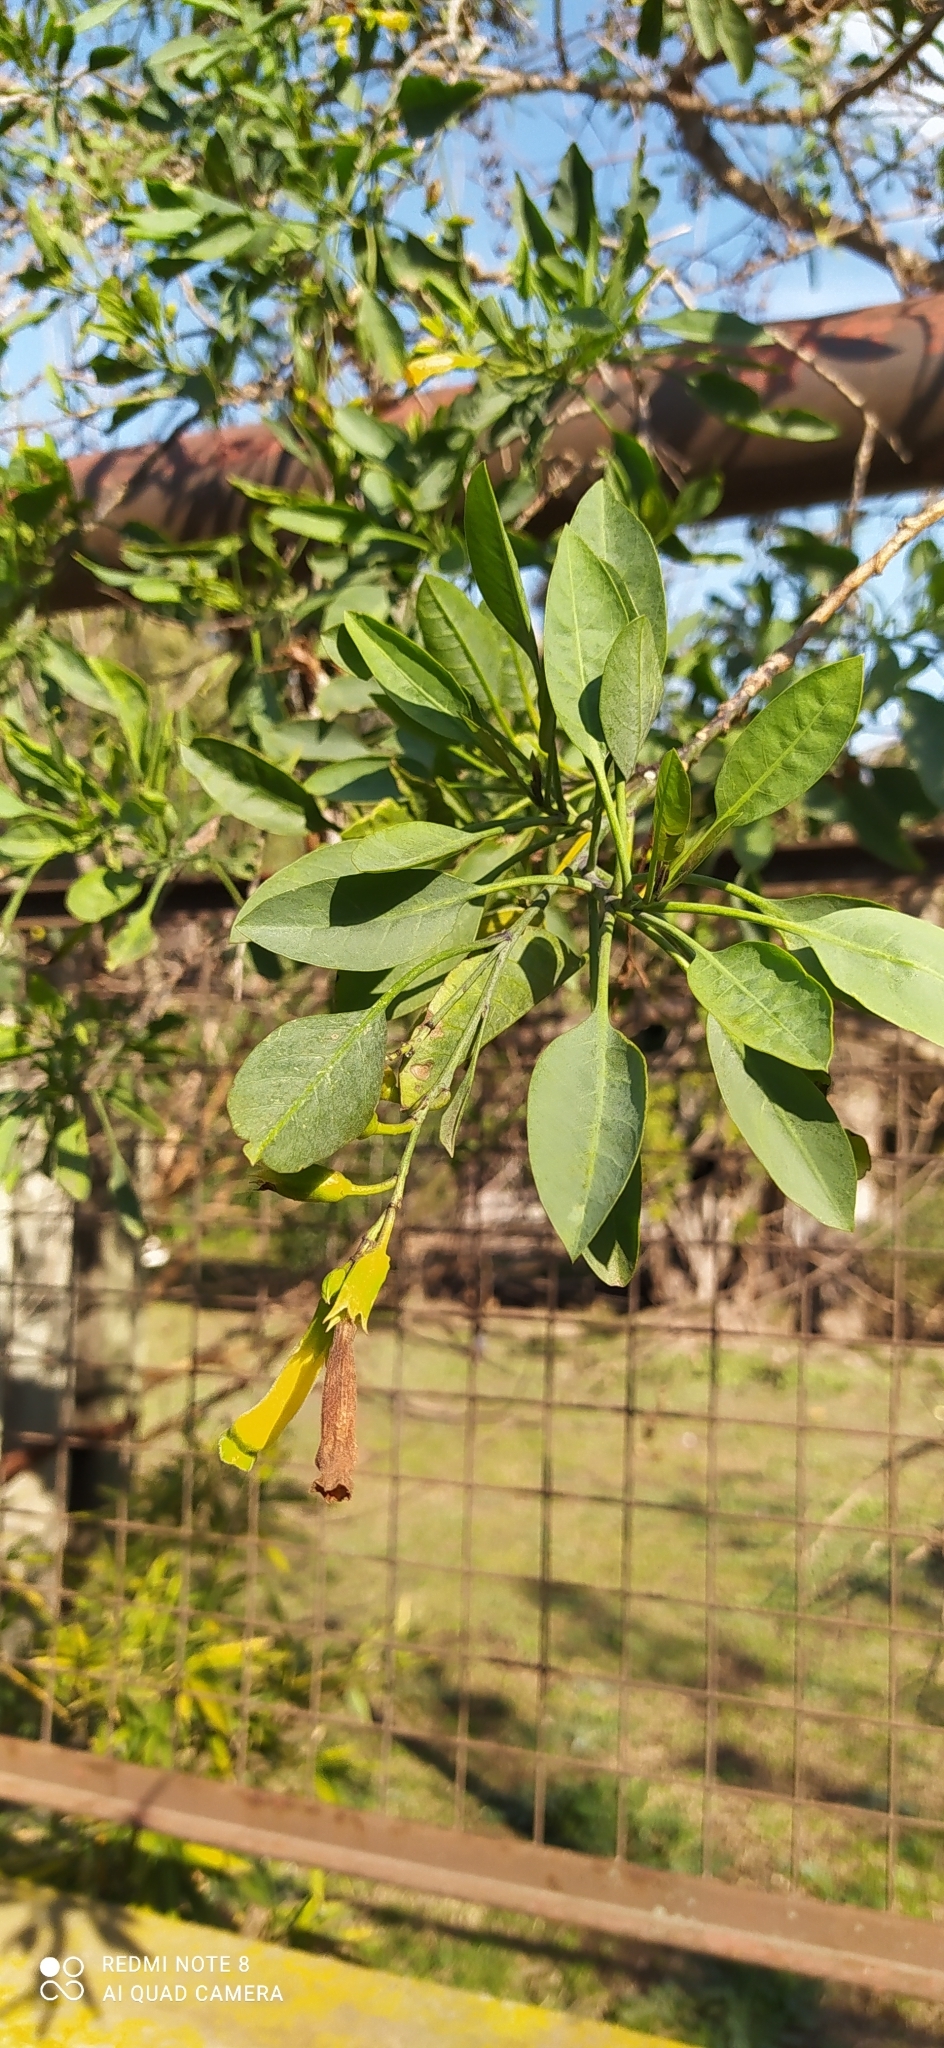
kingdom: Plantae
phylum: Tracheophyta
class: Magnoliopsida
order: Solanales
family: Solanaceae
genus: Nicotiana
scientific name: Nicotiana glauca
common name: Tree tobacco
